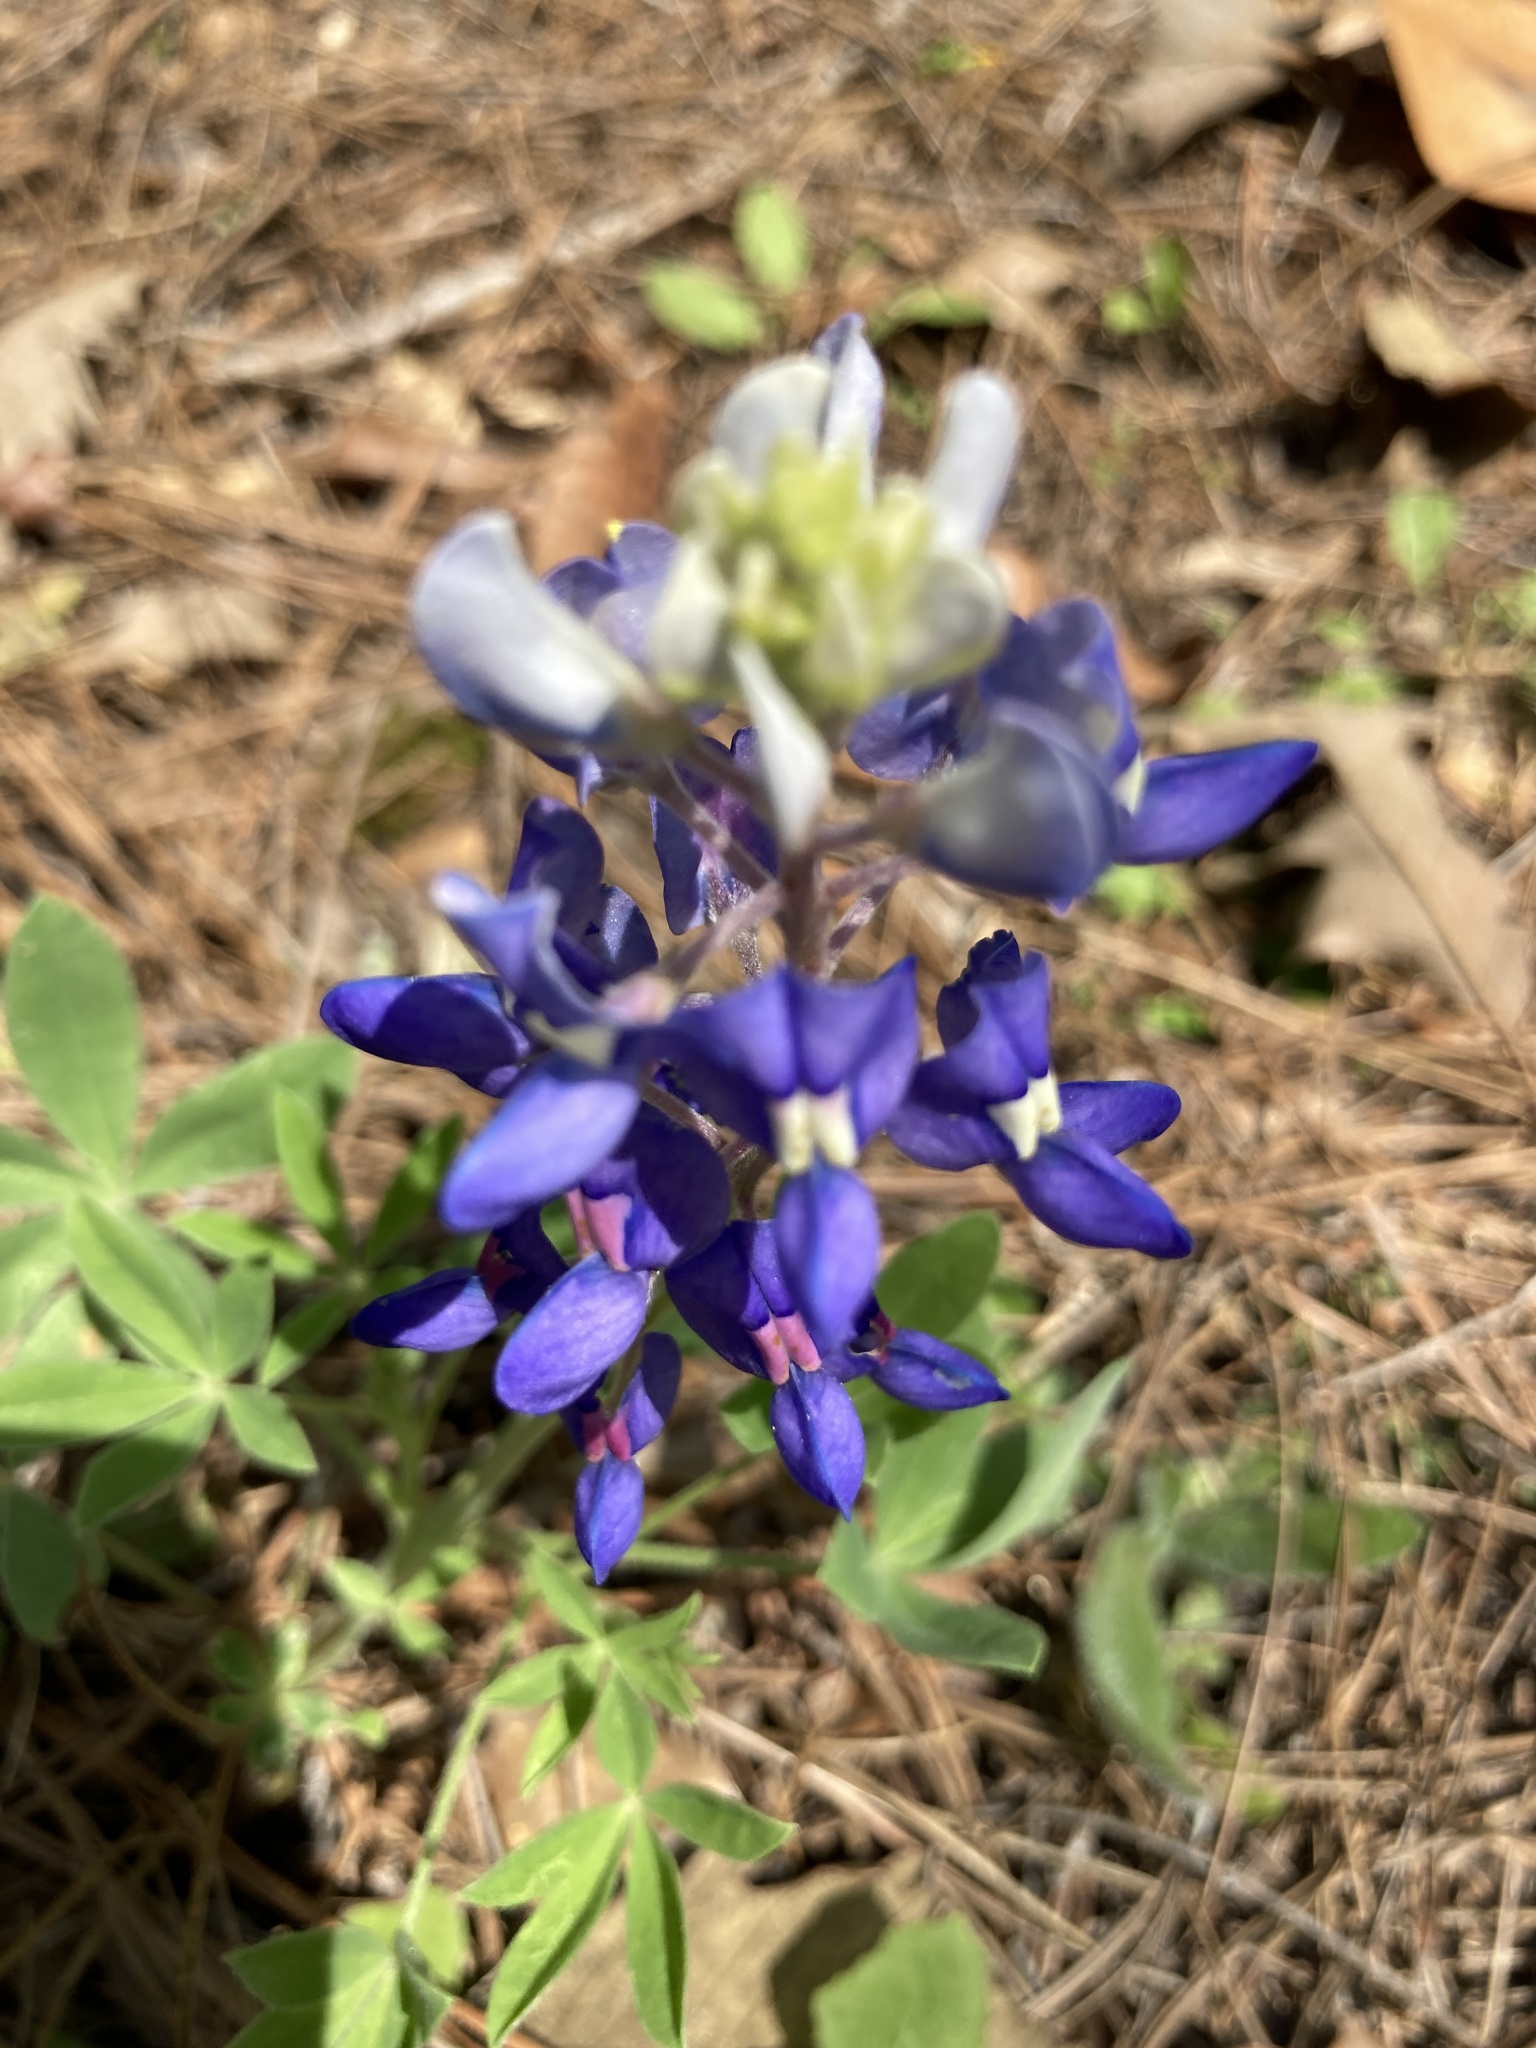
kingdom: Plantae
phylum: Tracheophyta
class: Magnoliopsida
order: Fabales
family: Fabaceae
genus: Lupinus
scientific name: Lupinus texensis
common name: Texas bluebonnet
